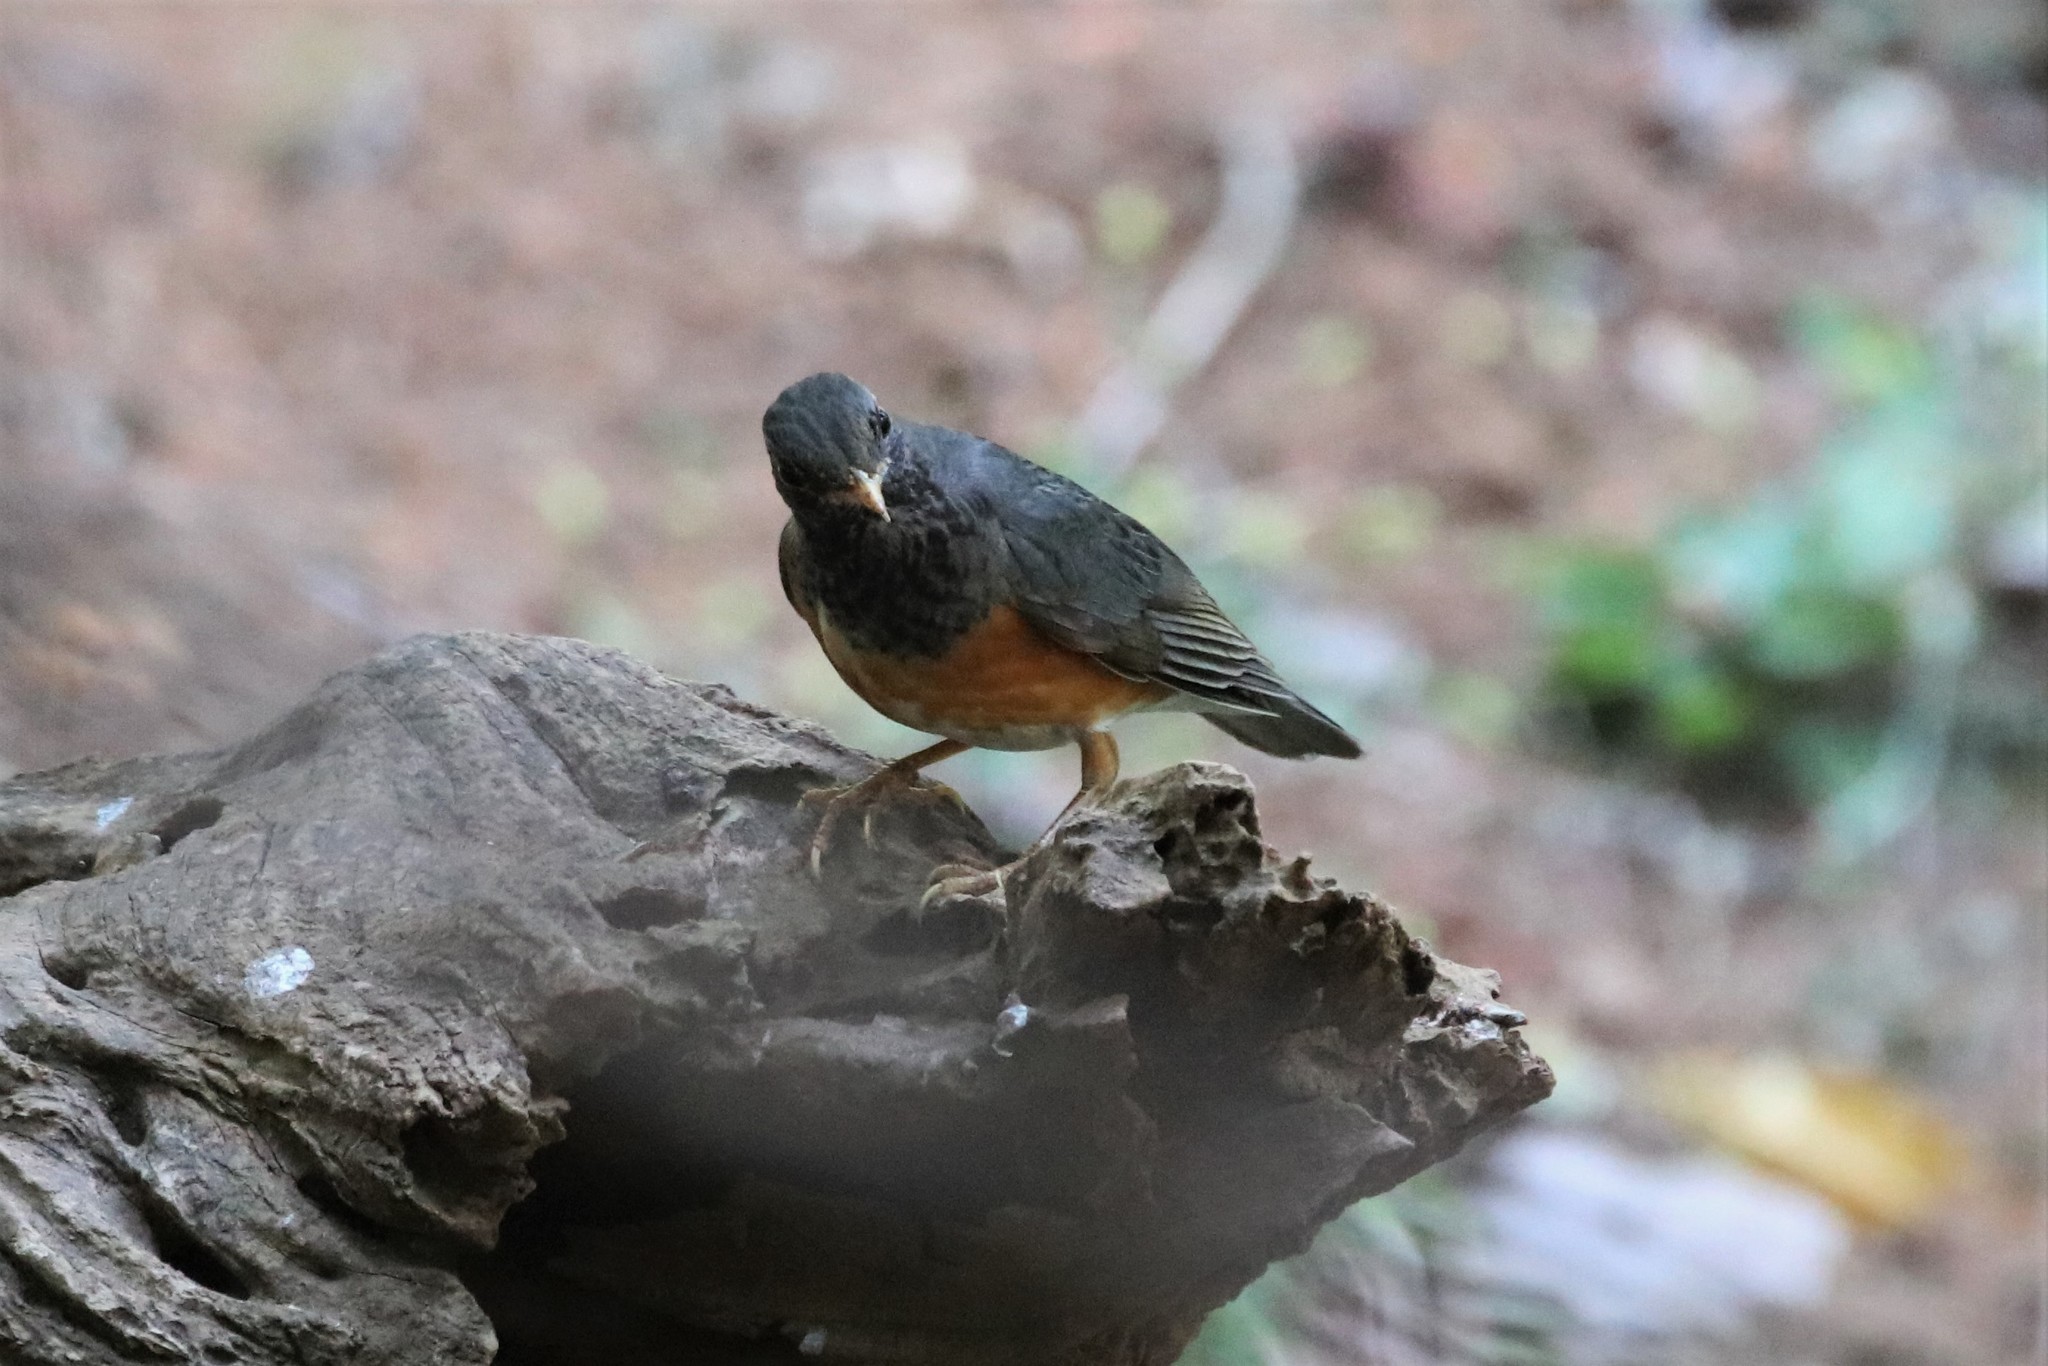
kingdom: Animalia
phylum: Chordata
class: Aves
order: Passeriformes
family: Turdidae
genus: Turdus
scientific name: Turdus dissimilis
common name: Black-breasted thrush
